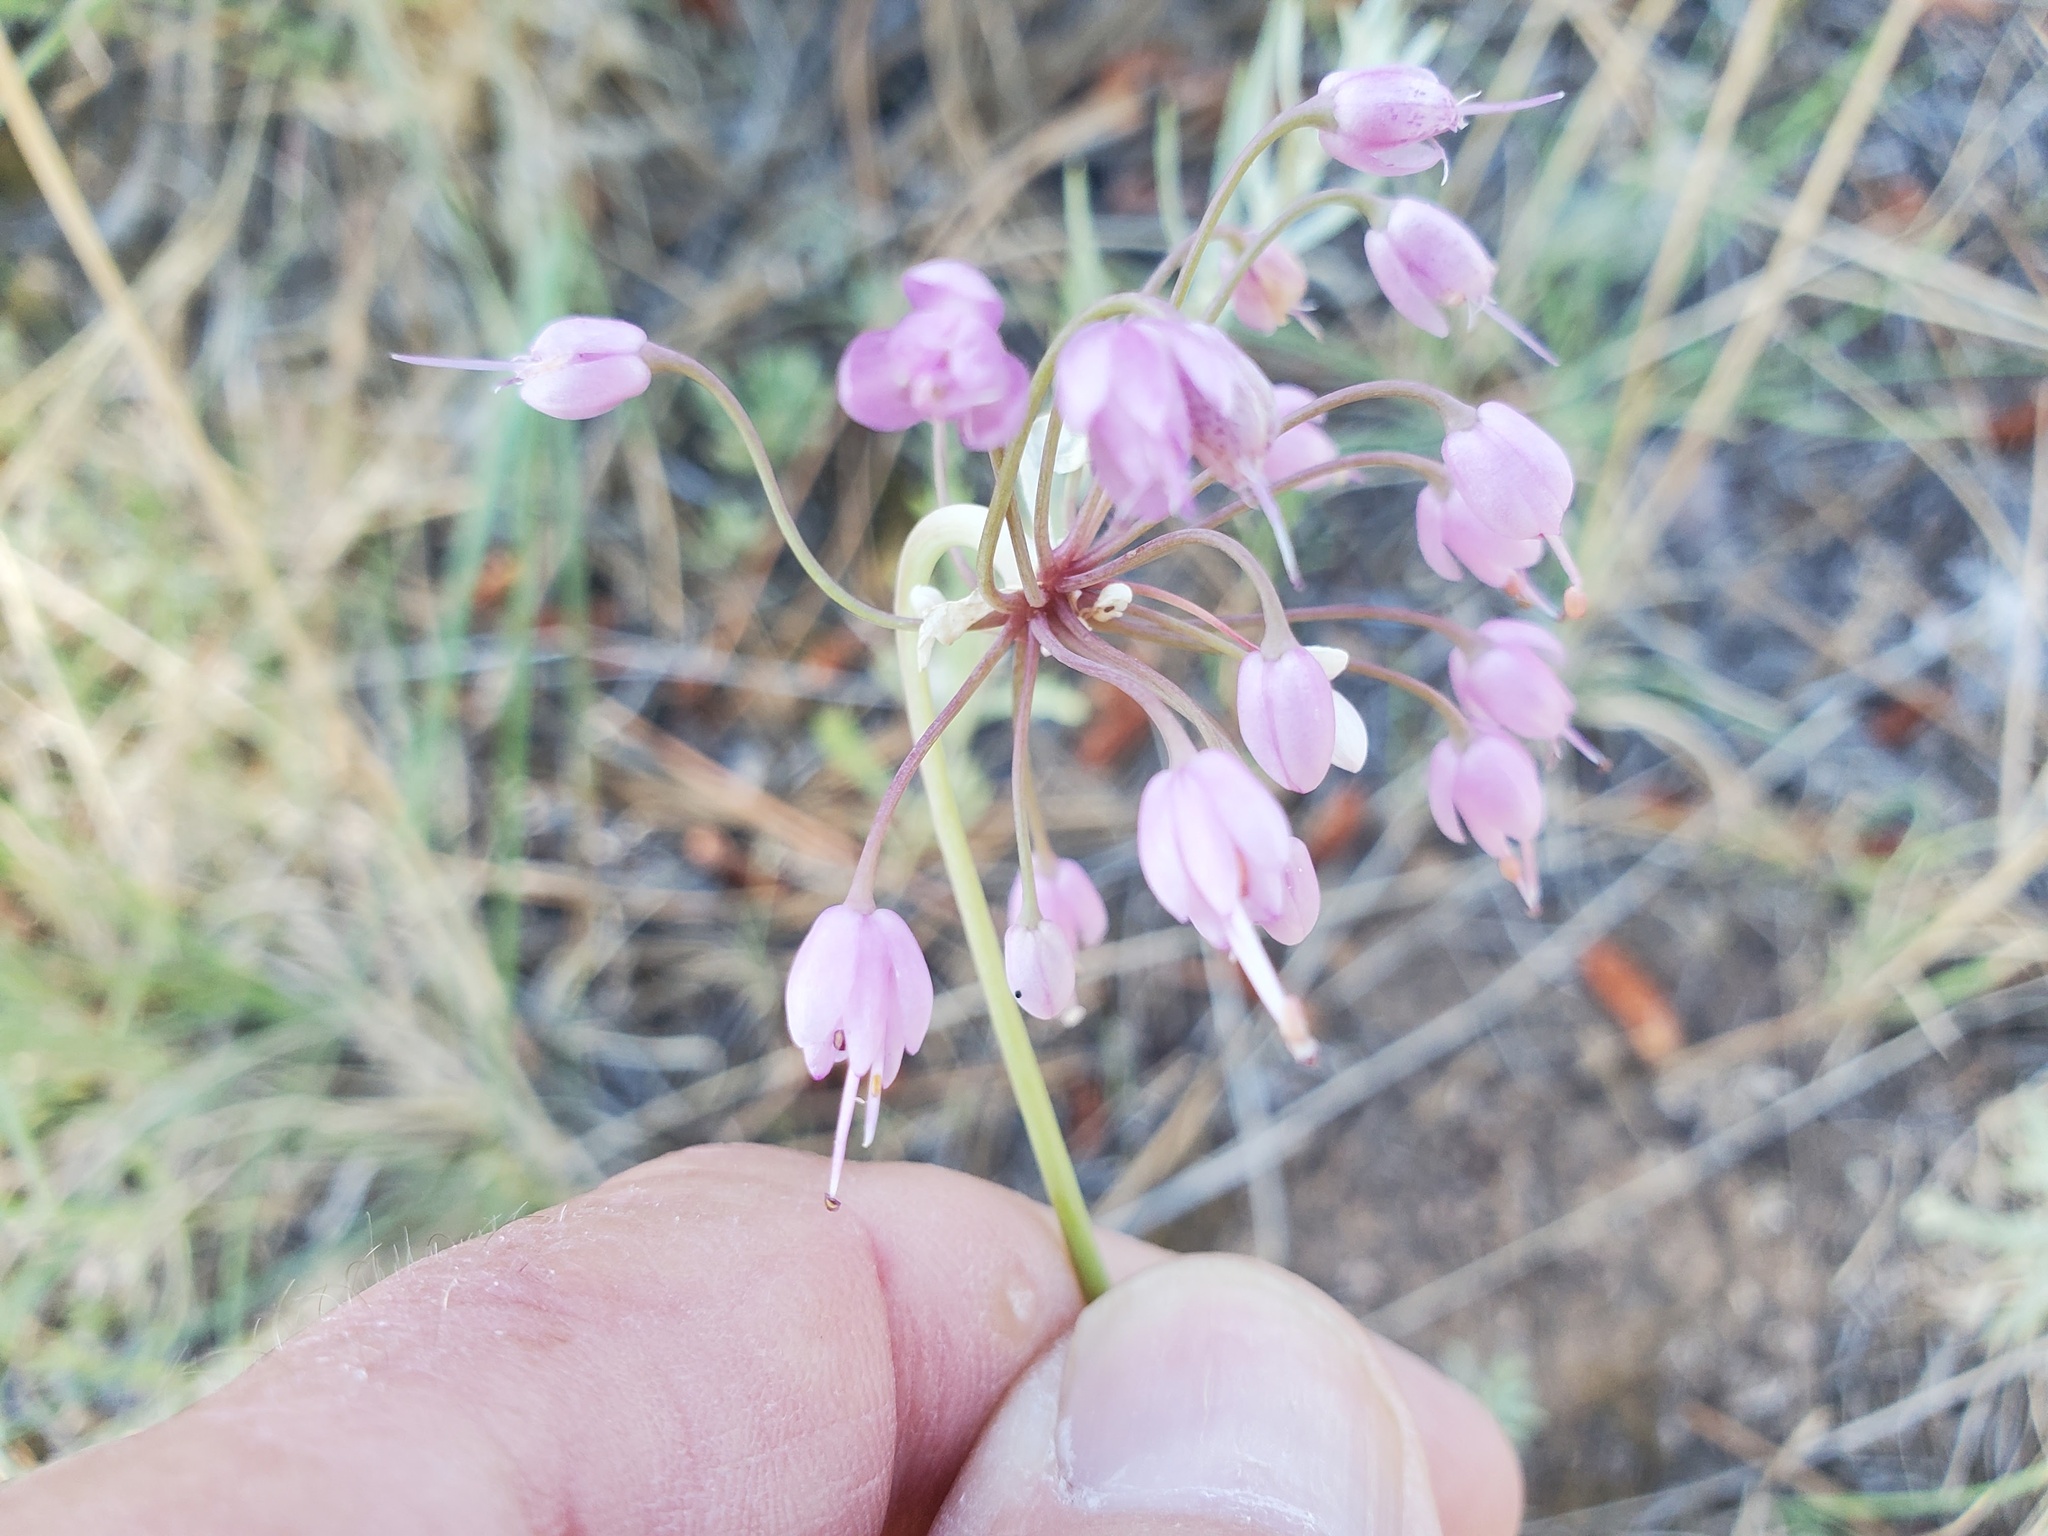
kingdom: Plantae
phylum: Tracheophyta
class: Liliopsida
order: Asparagales
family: Amaryllidaceae
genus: Allium
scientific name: Allium cernuum
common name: Nodding onion
